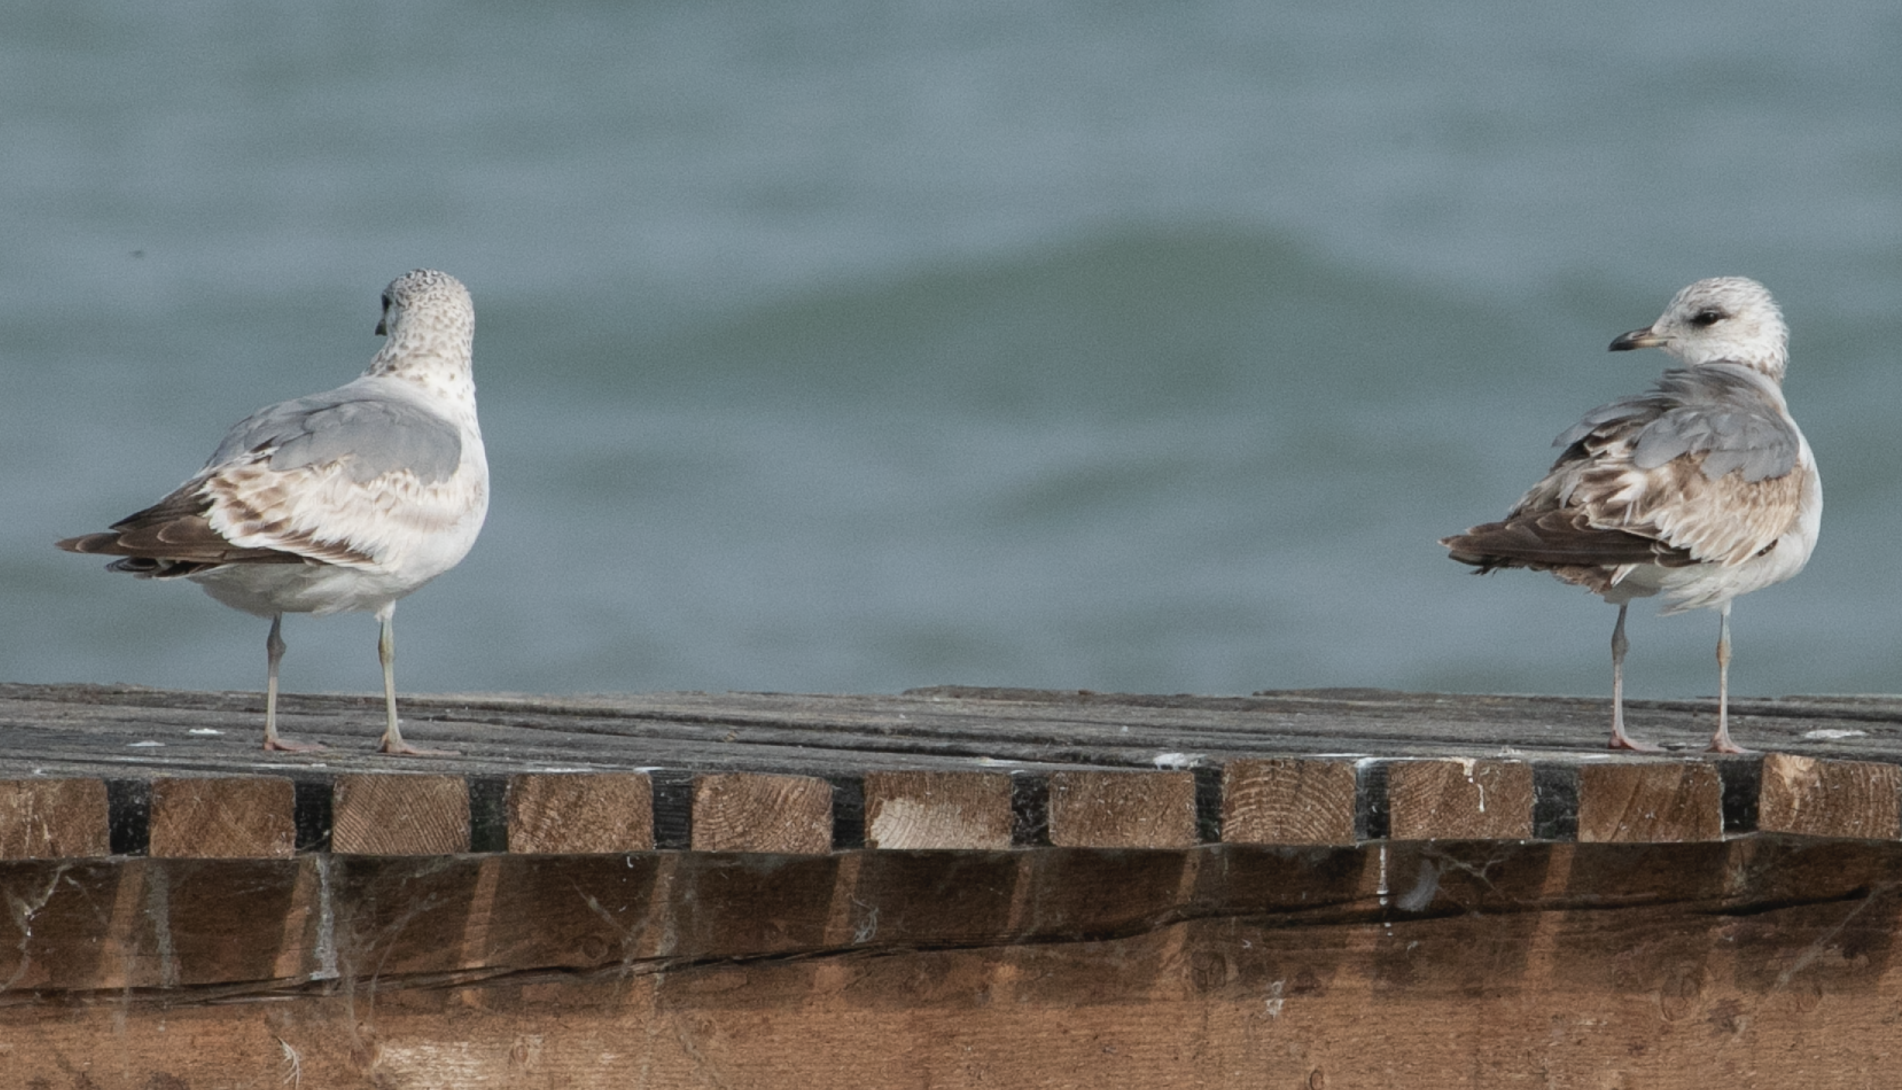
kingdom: Animalia
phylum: Chordata
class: Aves
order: Charadriiformes
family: Laridae
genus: Larus
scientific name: Larus canus
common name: Mew gull
